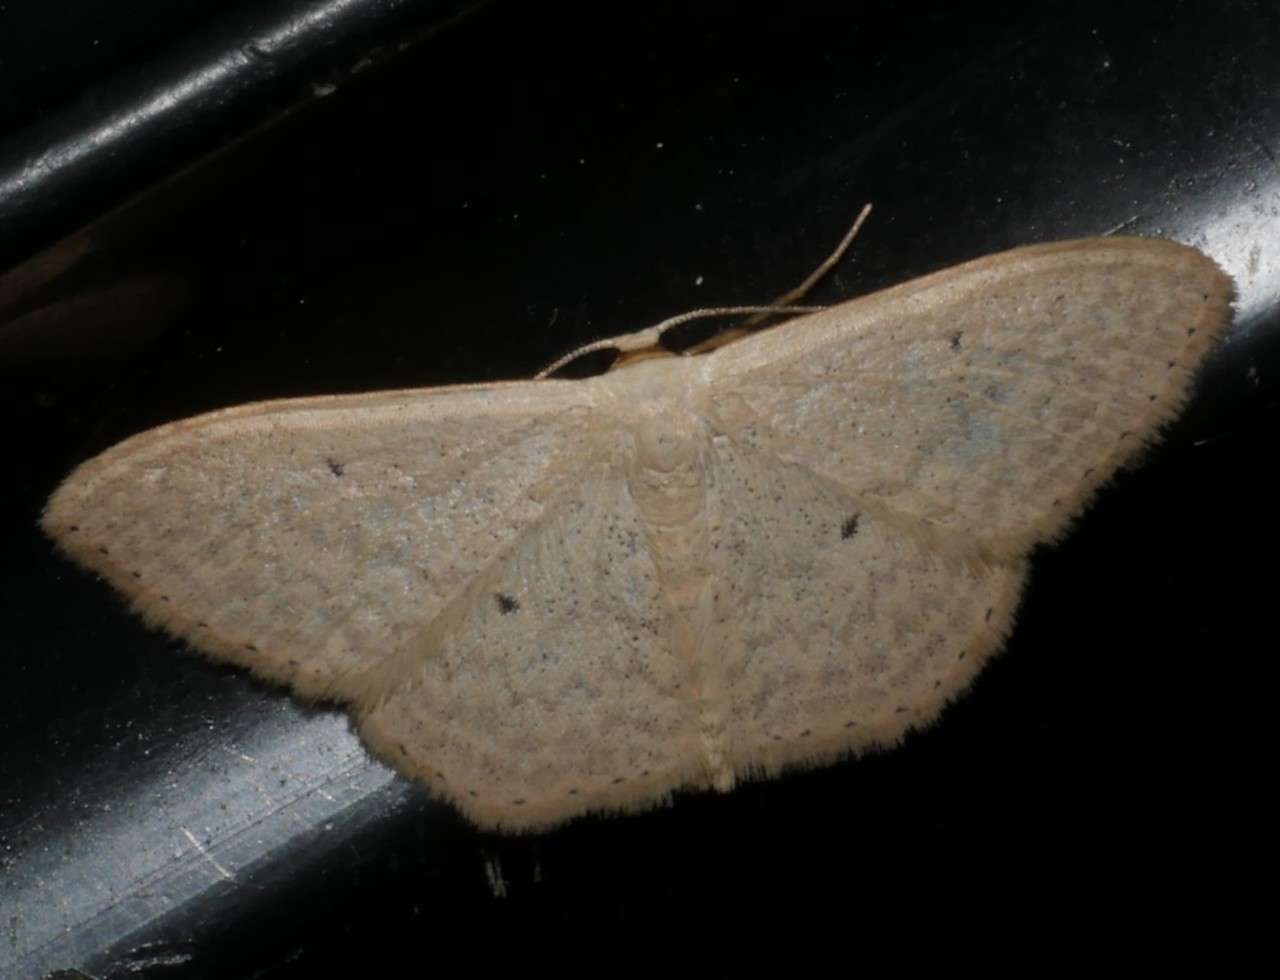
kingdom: Animalia
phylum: Arthropoda
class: Insecta
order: Lepidoptera
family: Geometridae
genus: Scopula
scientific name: Scopula optivata
